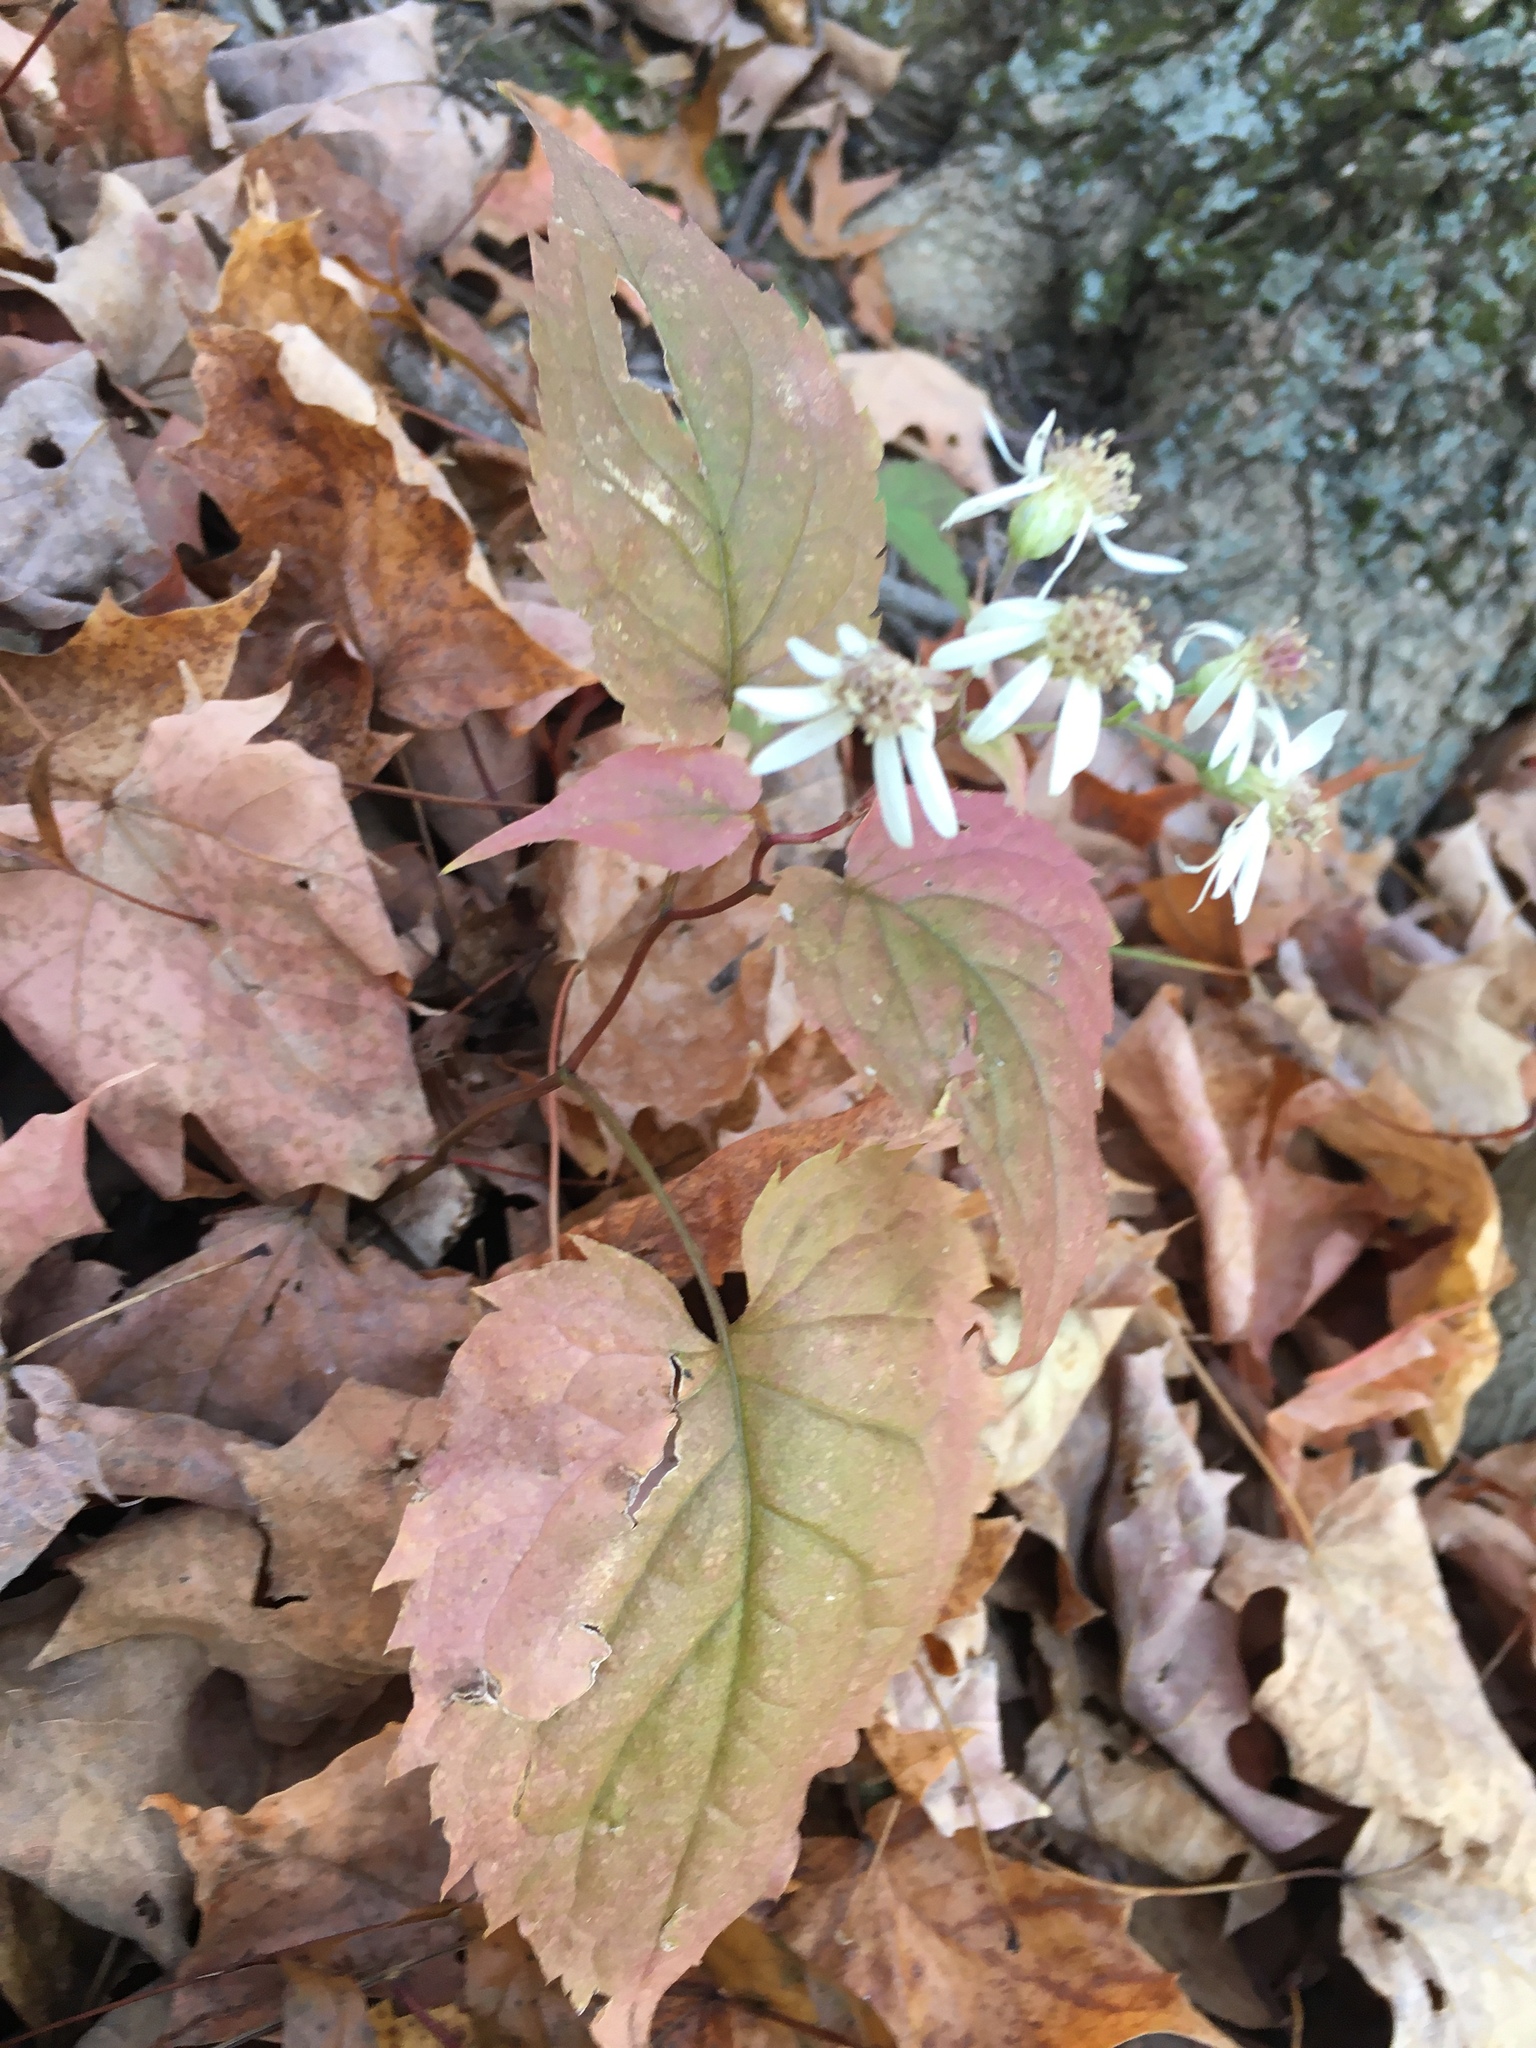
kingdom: Plantae
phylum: Tracheophyta
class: Magnoliopsida
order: Asterales
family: Asteraceae
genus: Eurybia
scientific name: Eurybia divaricata
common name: White wood aster
